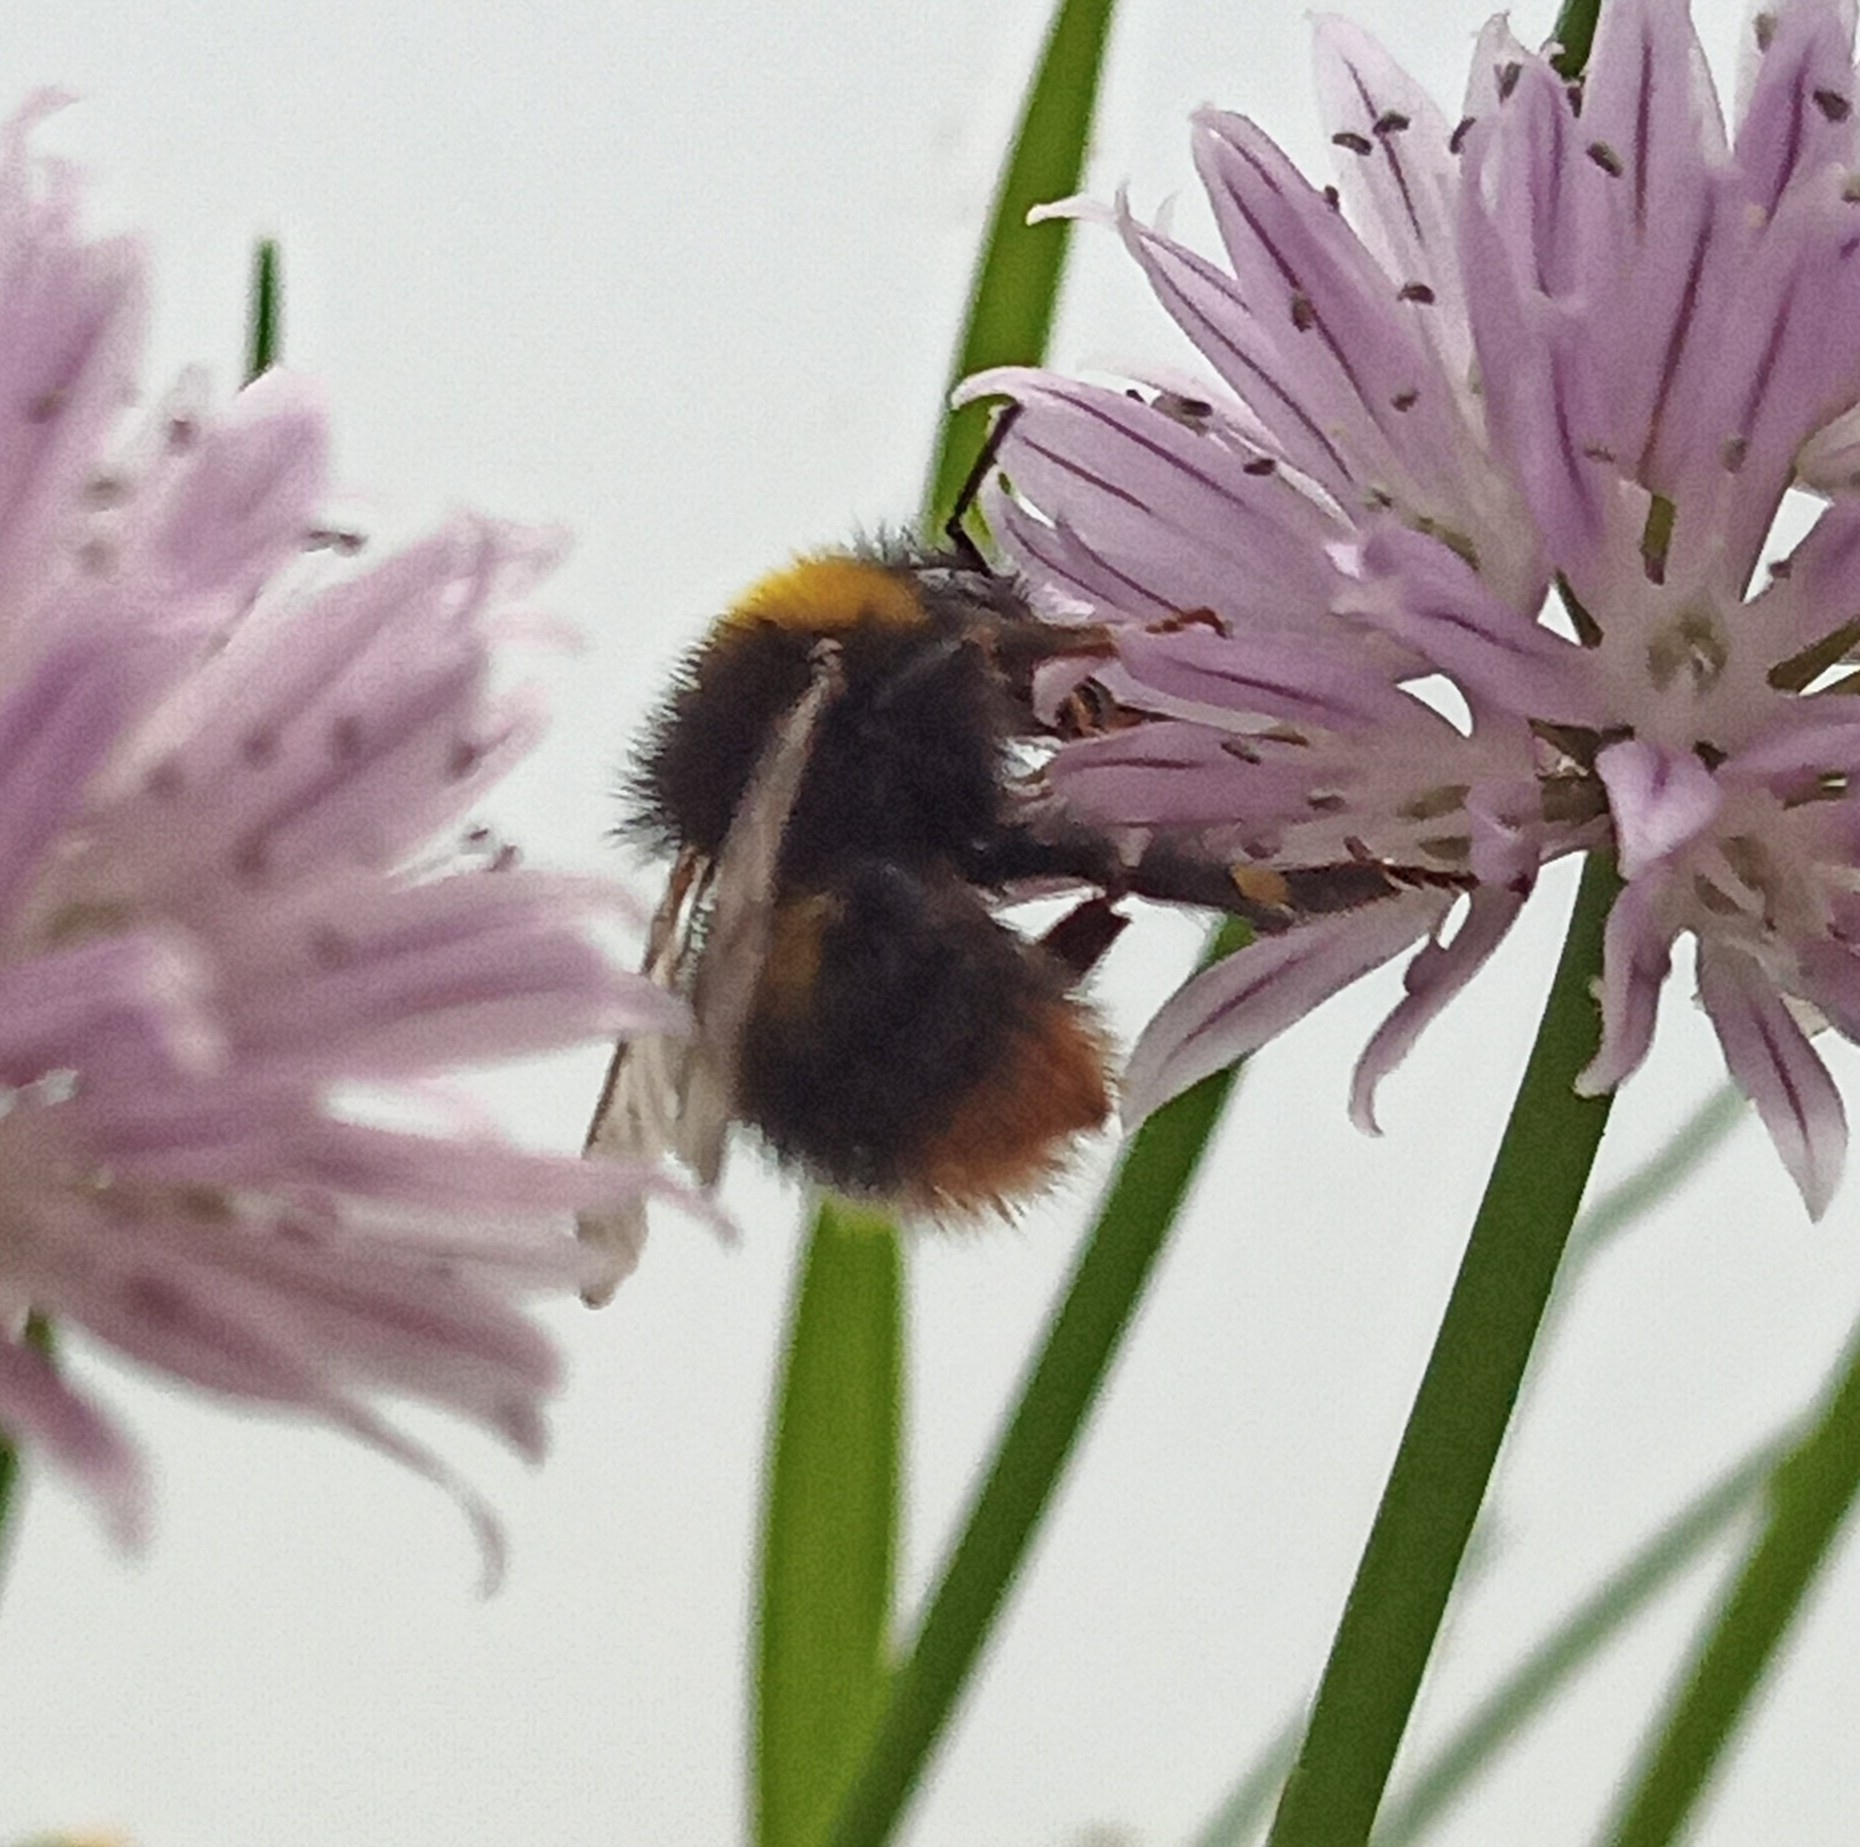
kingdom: Animalia
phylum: Arthropoda
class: Insecta
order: Hymenoptera
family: Apidae
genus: Bombus
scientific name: Bombus pratorum
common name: Early humble-bee
